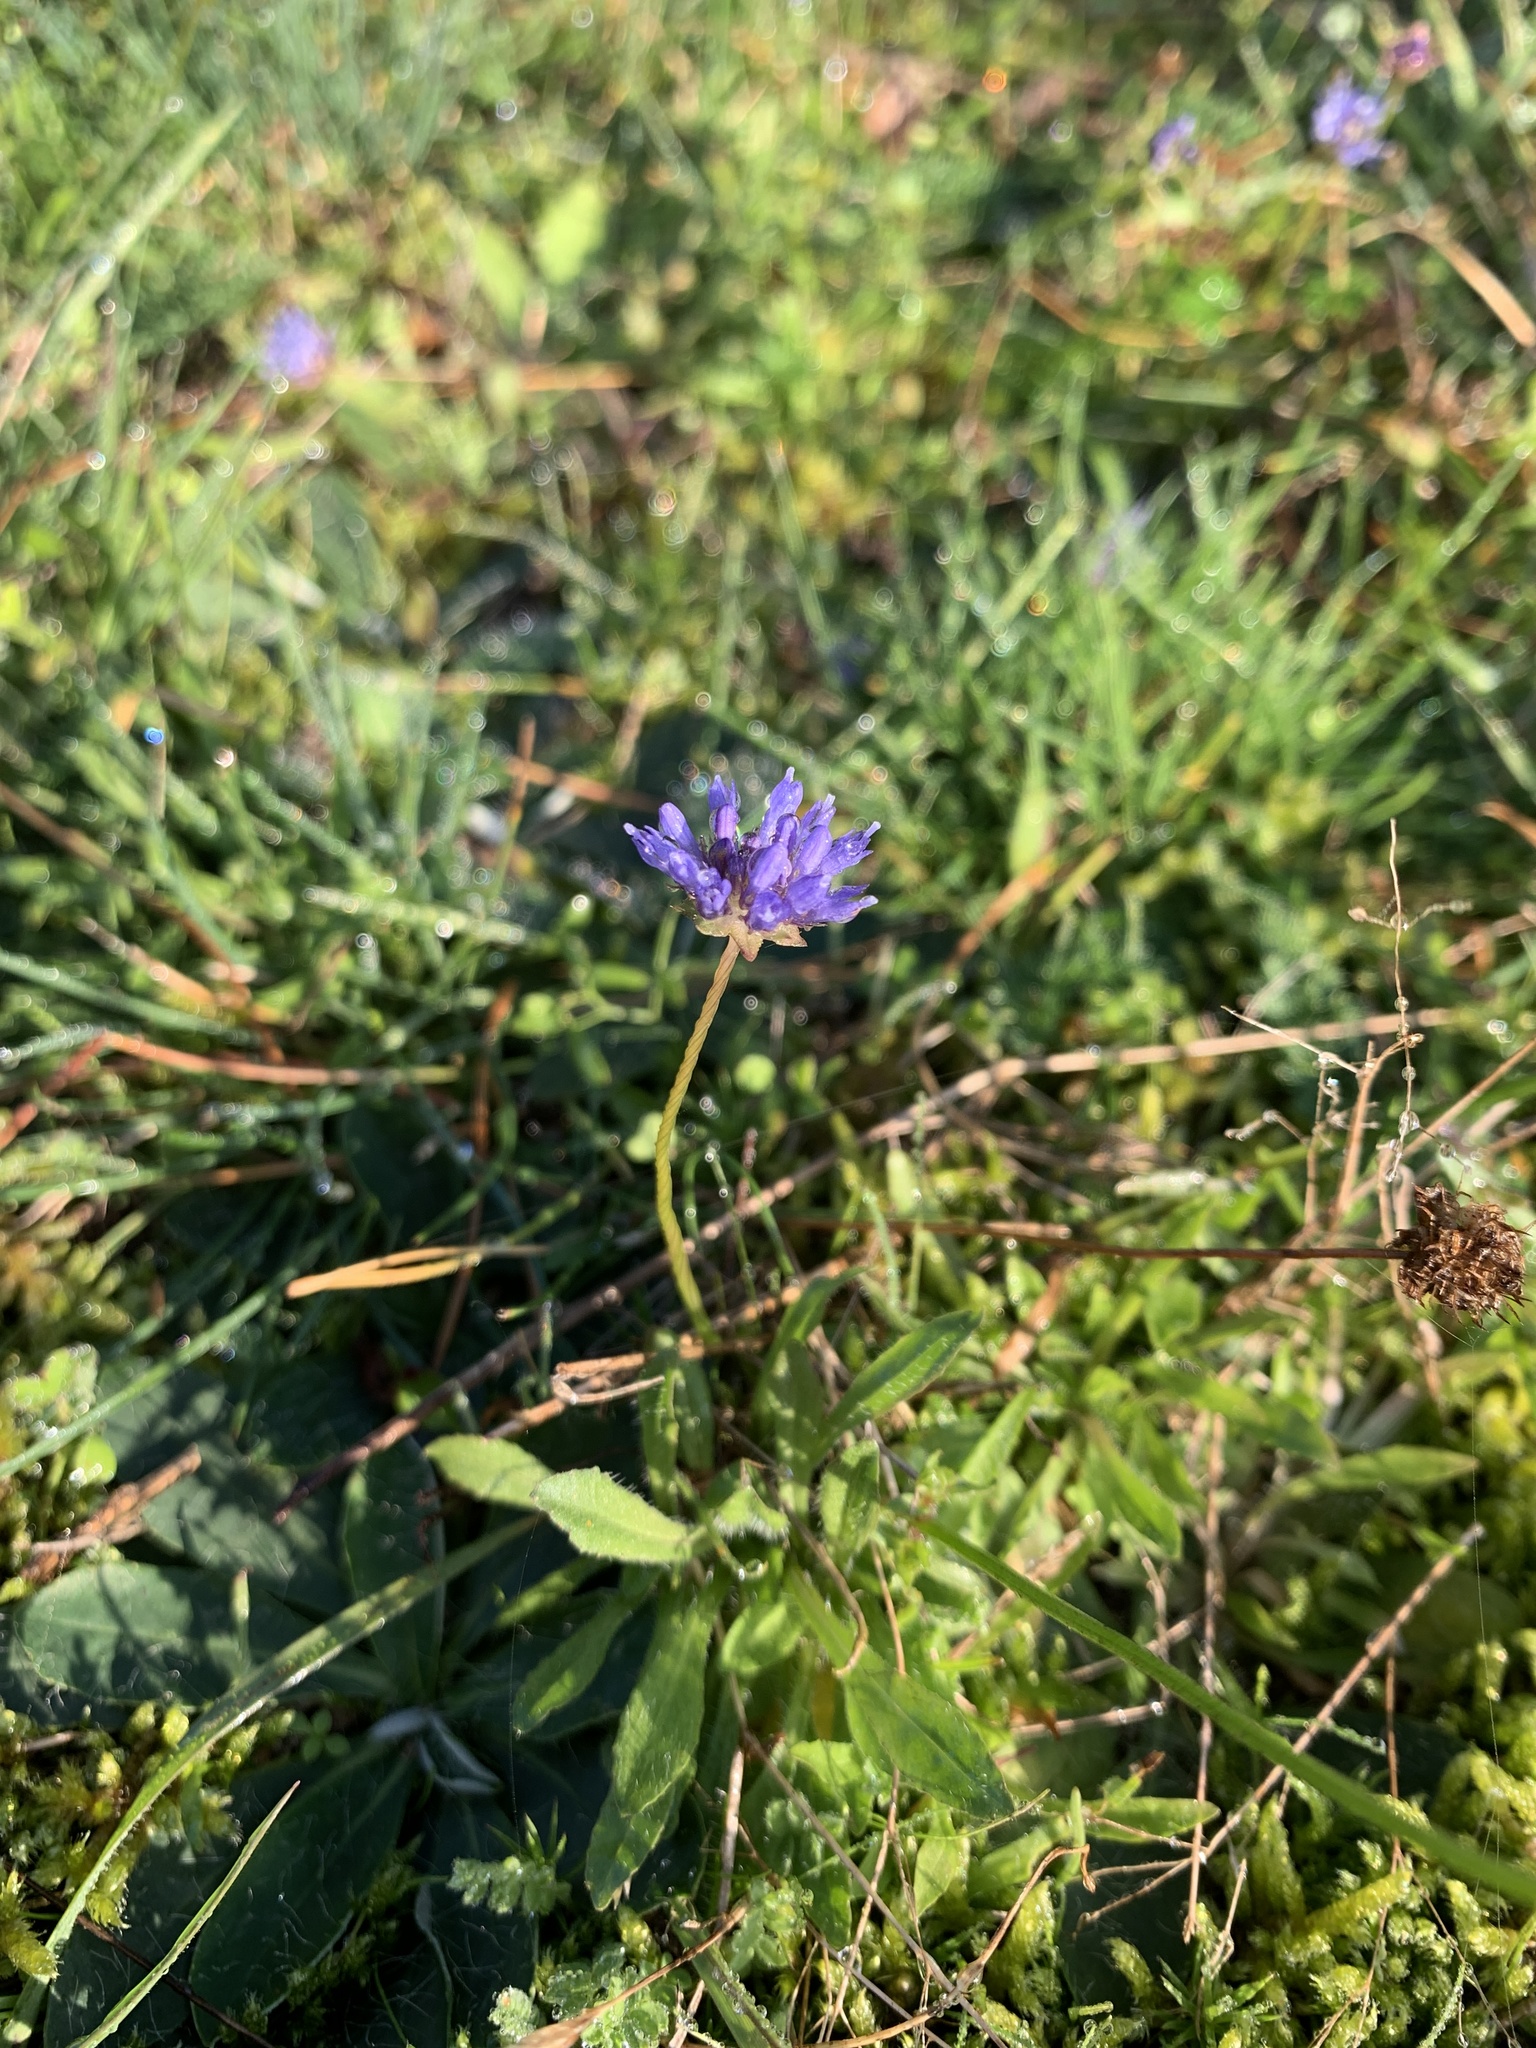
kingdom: Plantae
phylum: Tracheophyta
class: Magnoliopsida
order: Asterales
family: Campanulaceae
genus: Jasione
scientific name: Jasione montana
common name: Sheep's-bit
